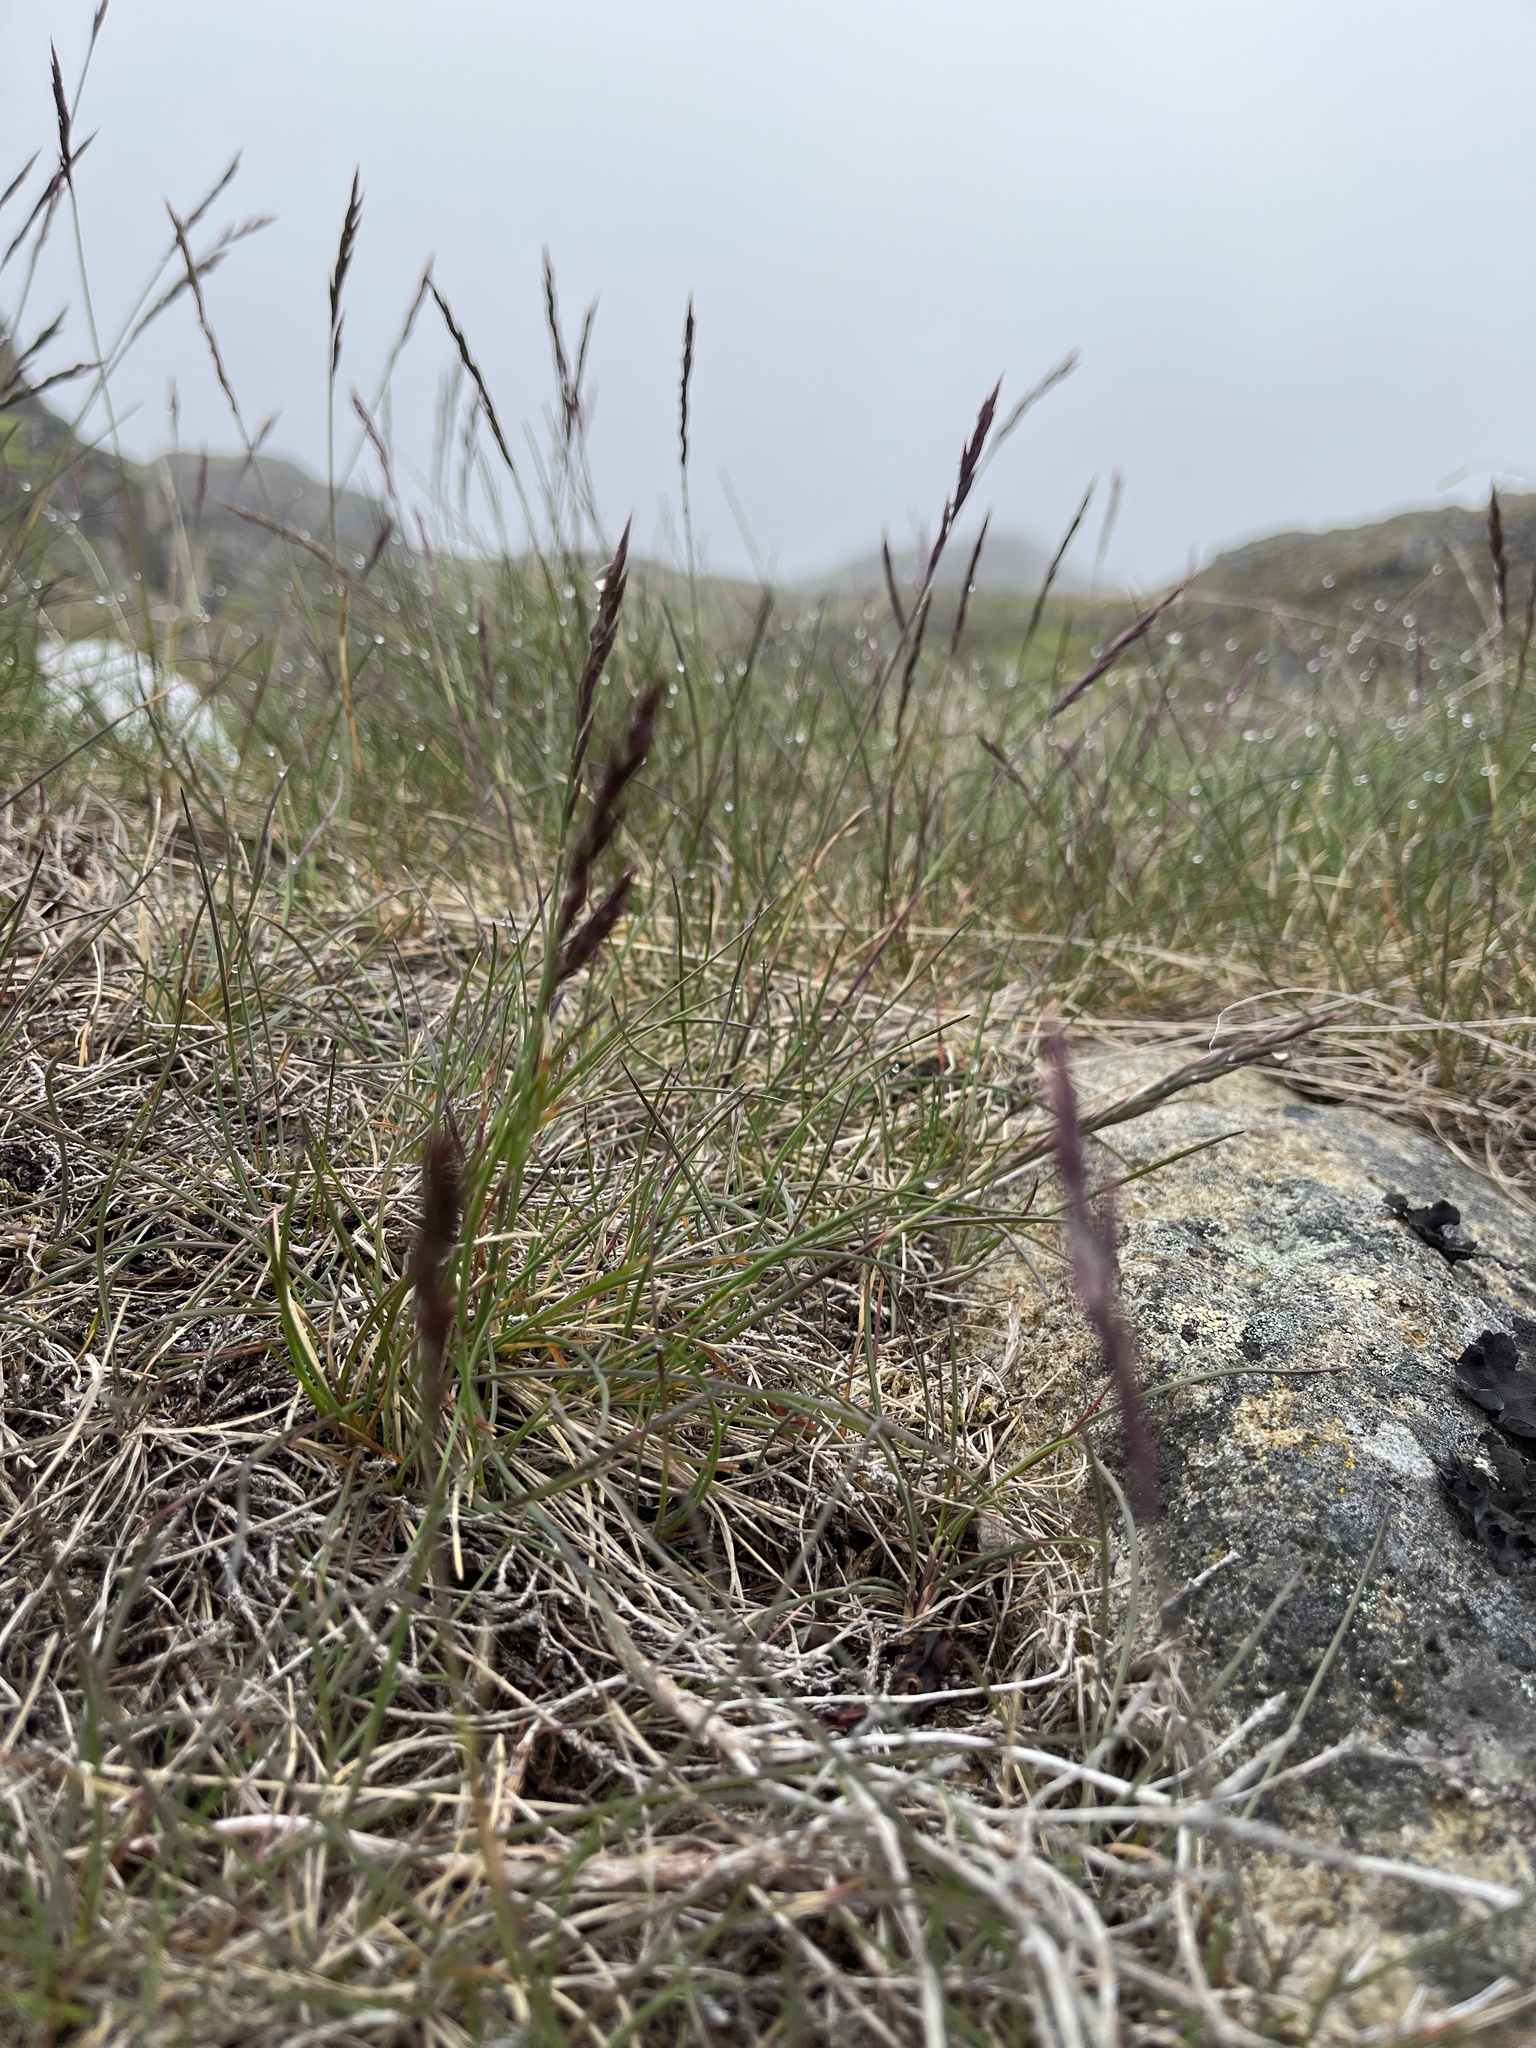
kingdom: Plantae
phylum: Tracheophyta
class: Liliopsida
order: Poales
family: Poaceae
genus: Festuca
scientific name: Festuca rubra
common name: Red fescue
